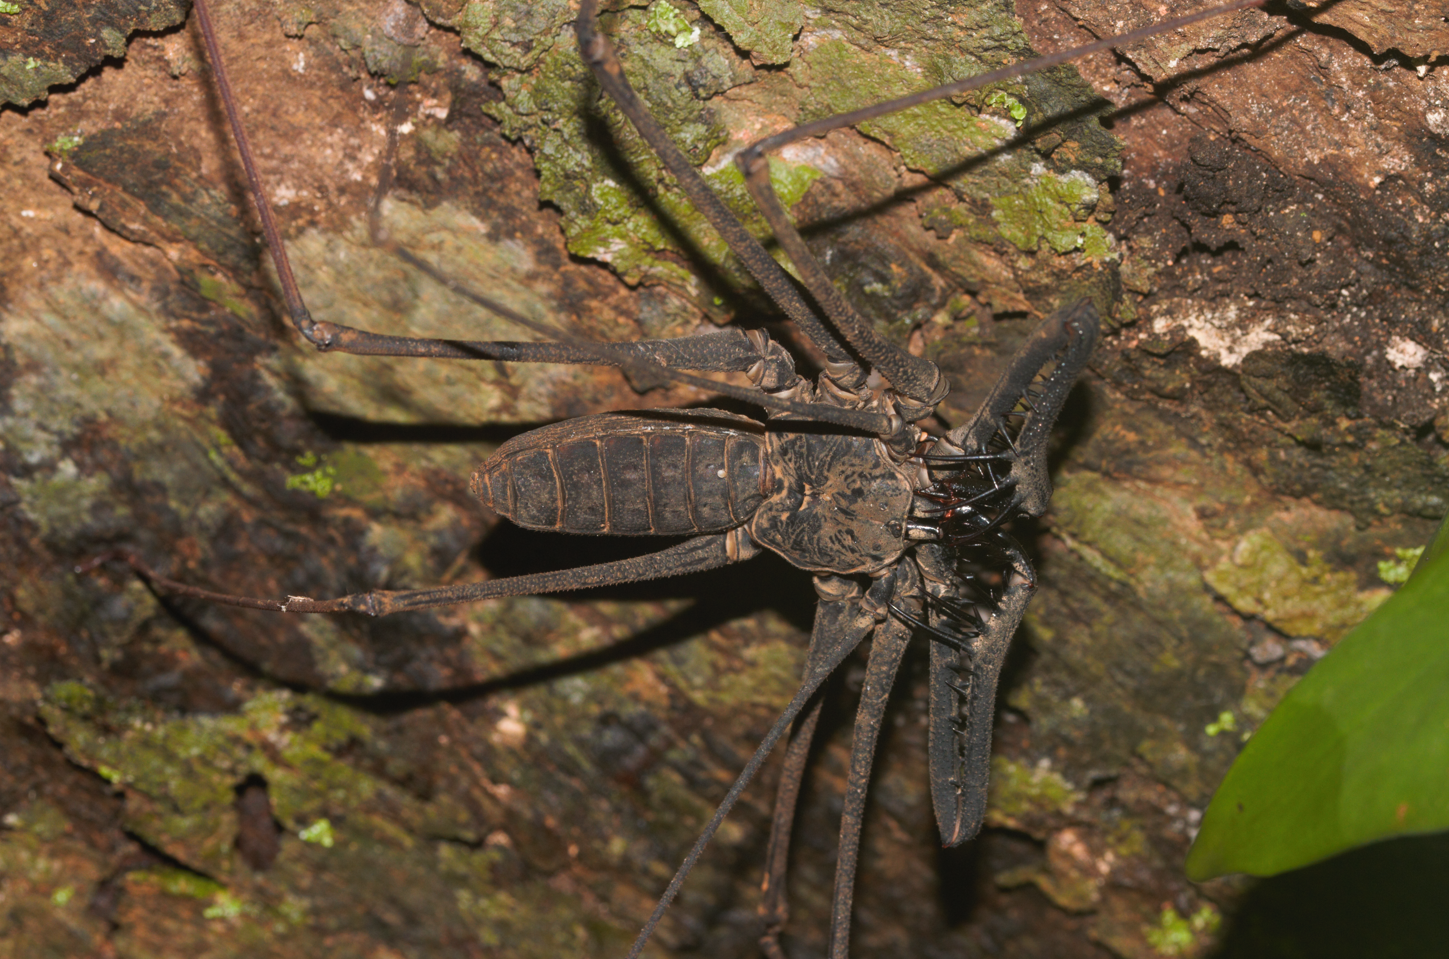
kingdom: Animalia
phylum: Arthropoda
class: Arachnida
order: Amblypygi
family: Phrynidae
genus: Heterophrynus
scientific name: Heterophrynus longicornis
